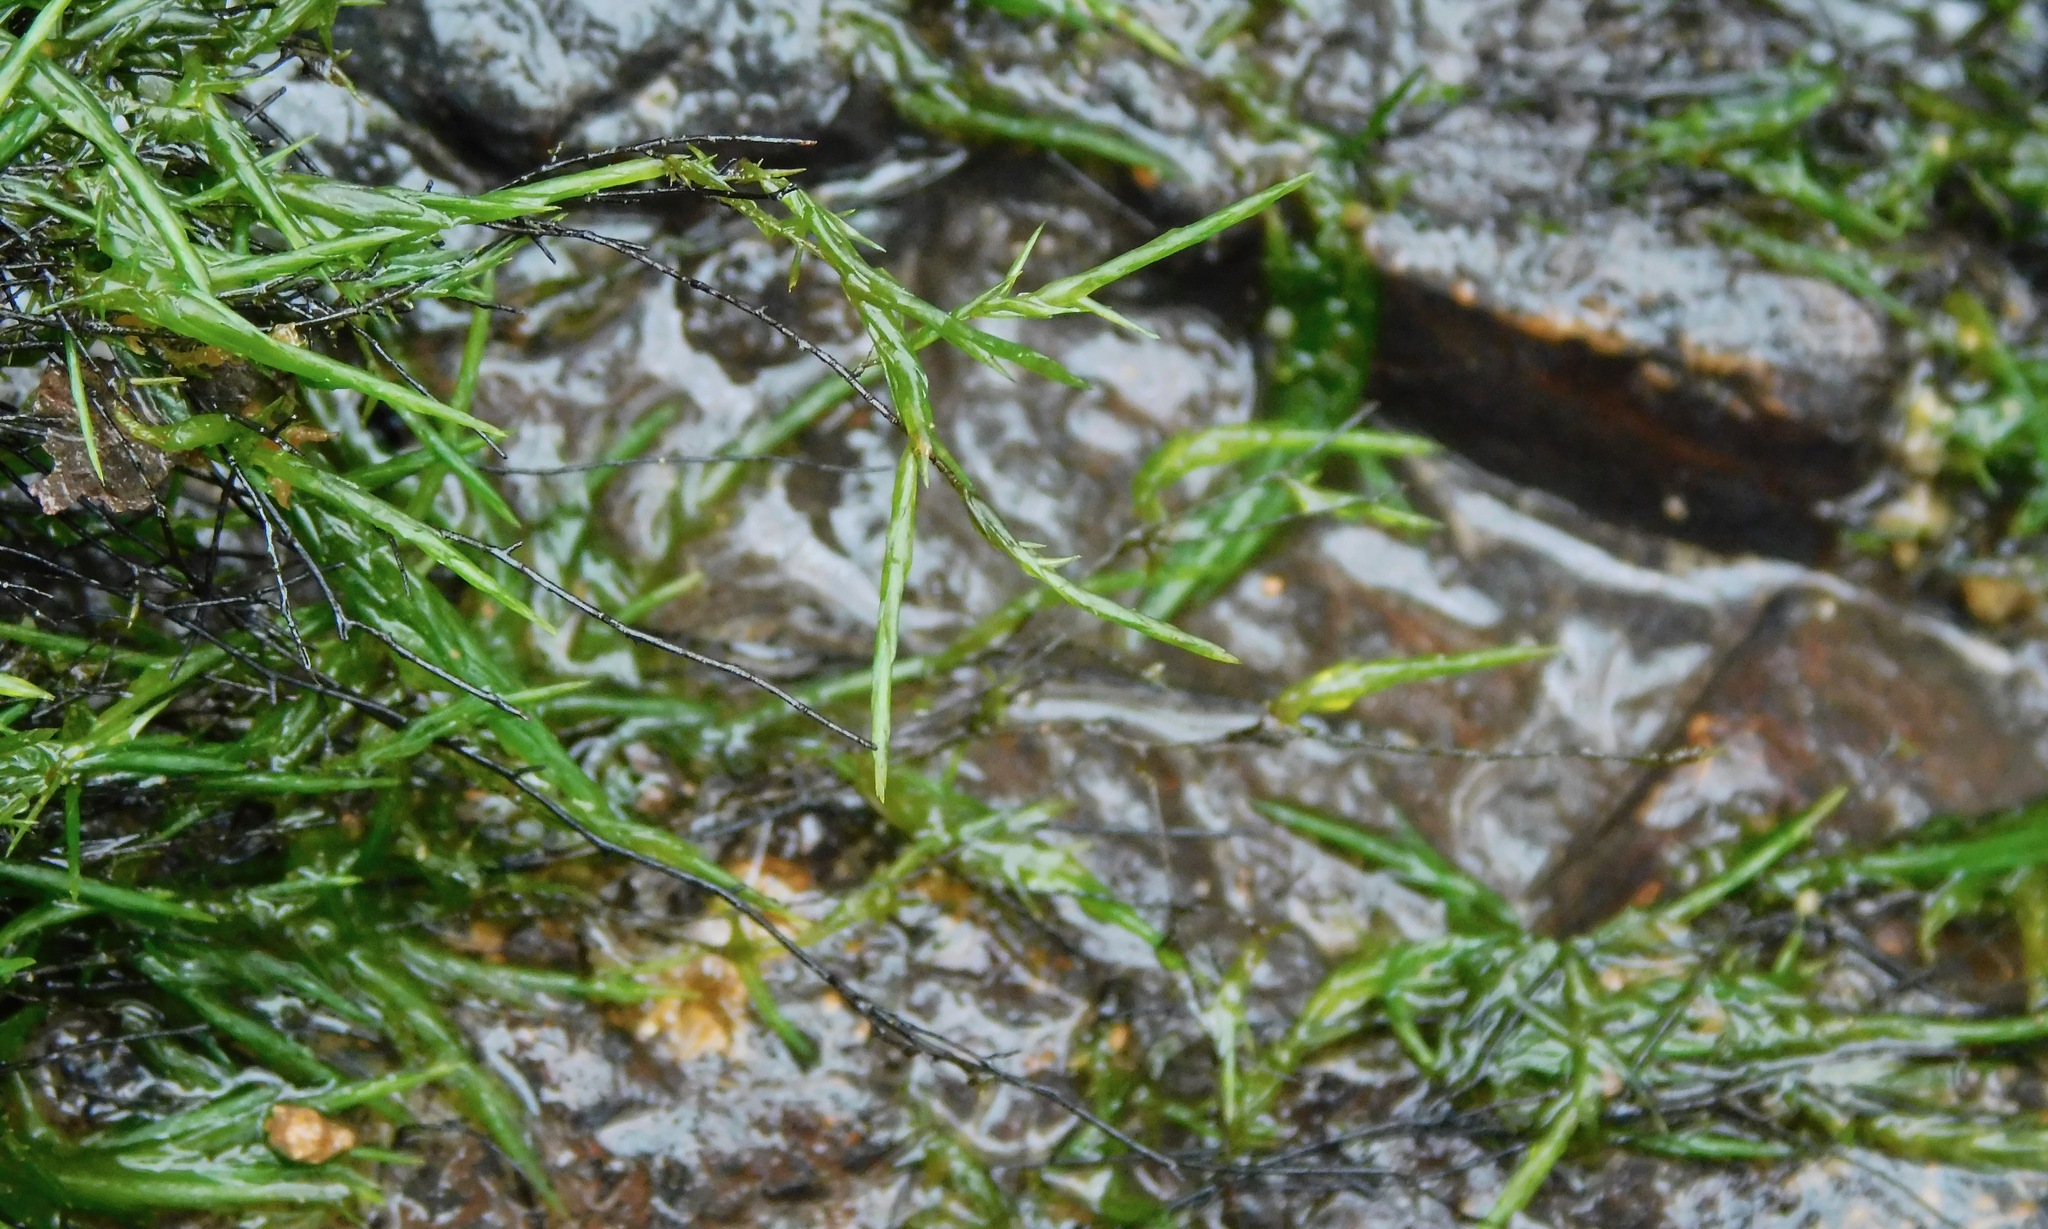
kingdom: Plantae
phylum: Bryophyta
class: Bryopsida
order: Hypnales
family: Fontinalaceae
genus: Fontinalis
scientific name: Fontinalis novae-angliae
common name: New england water moss
